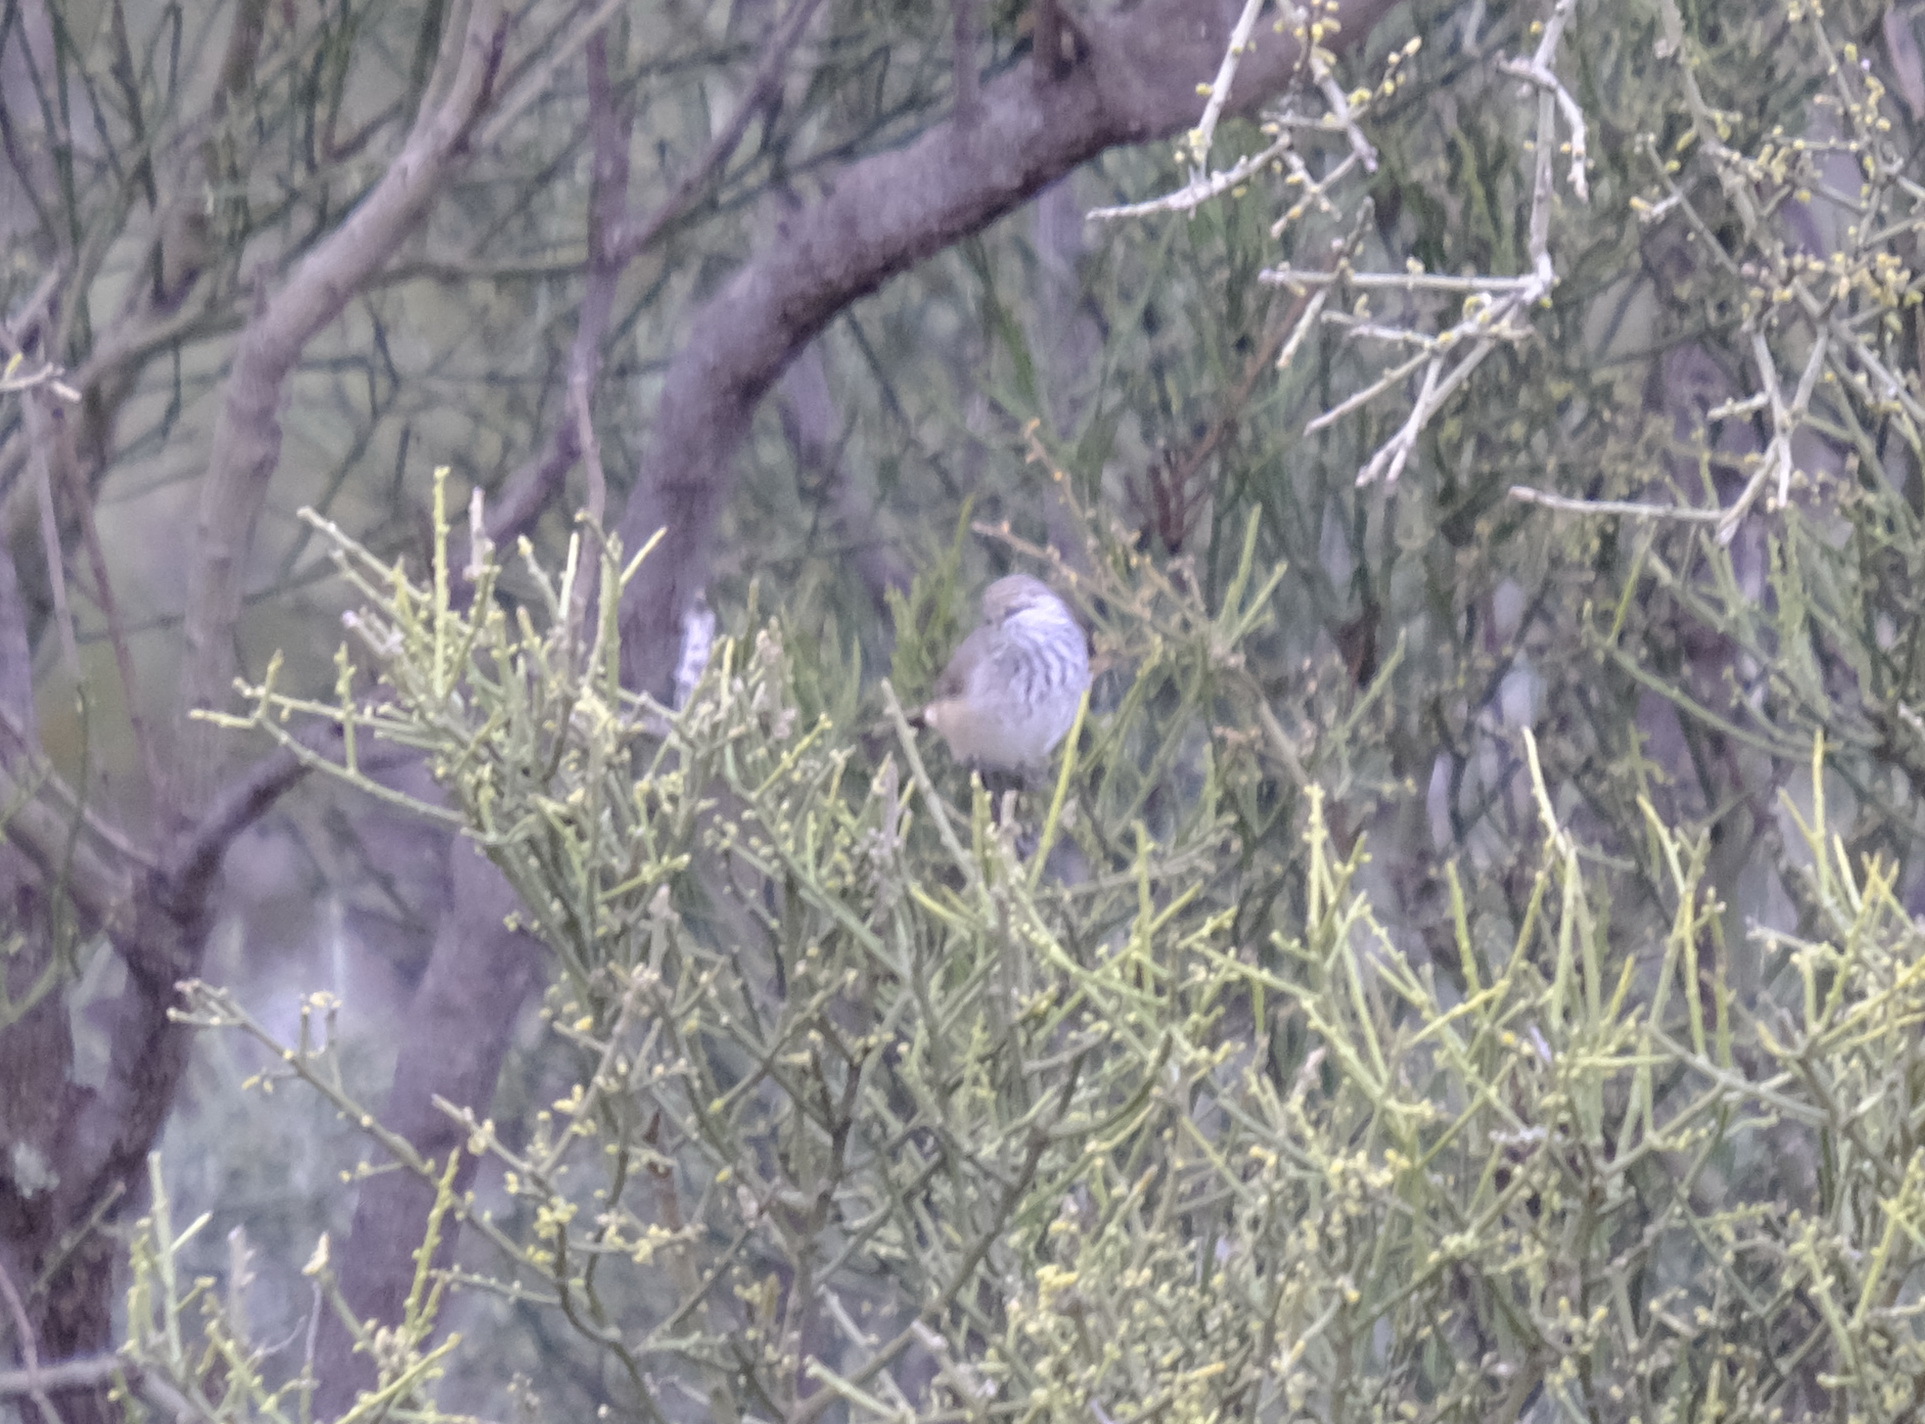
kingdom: Animalia
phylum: Chordata
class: Aves
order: Passeriformes
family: Acanthizidae
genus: Acanthiza
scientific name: Acanthiza apicalis
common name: Inland thornbill
